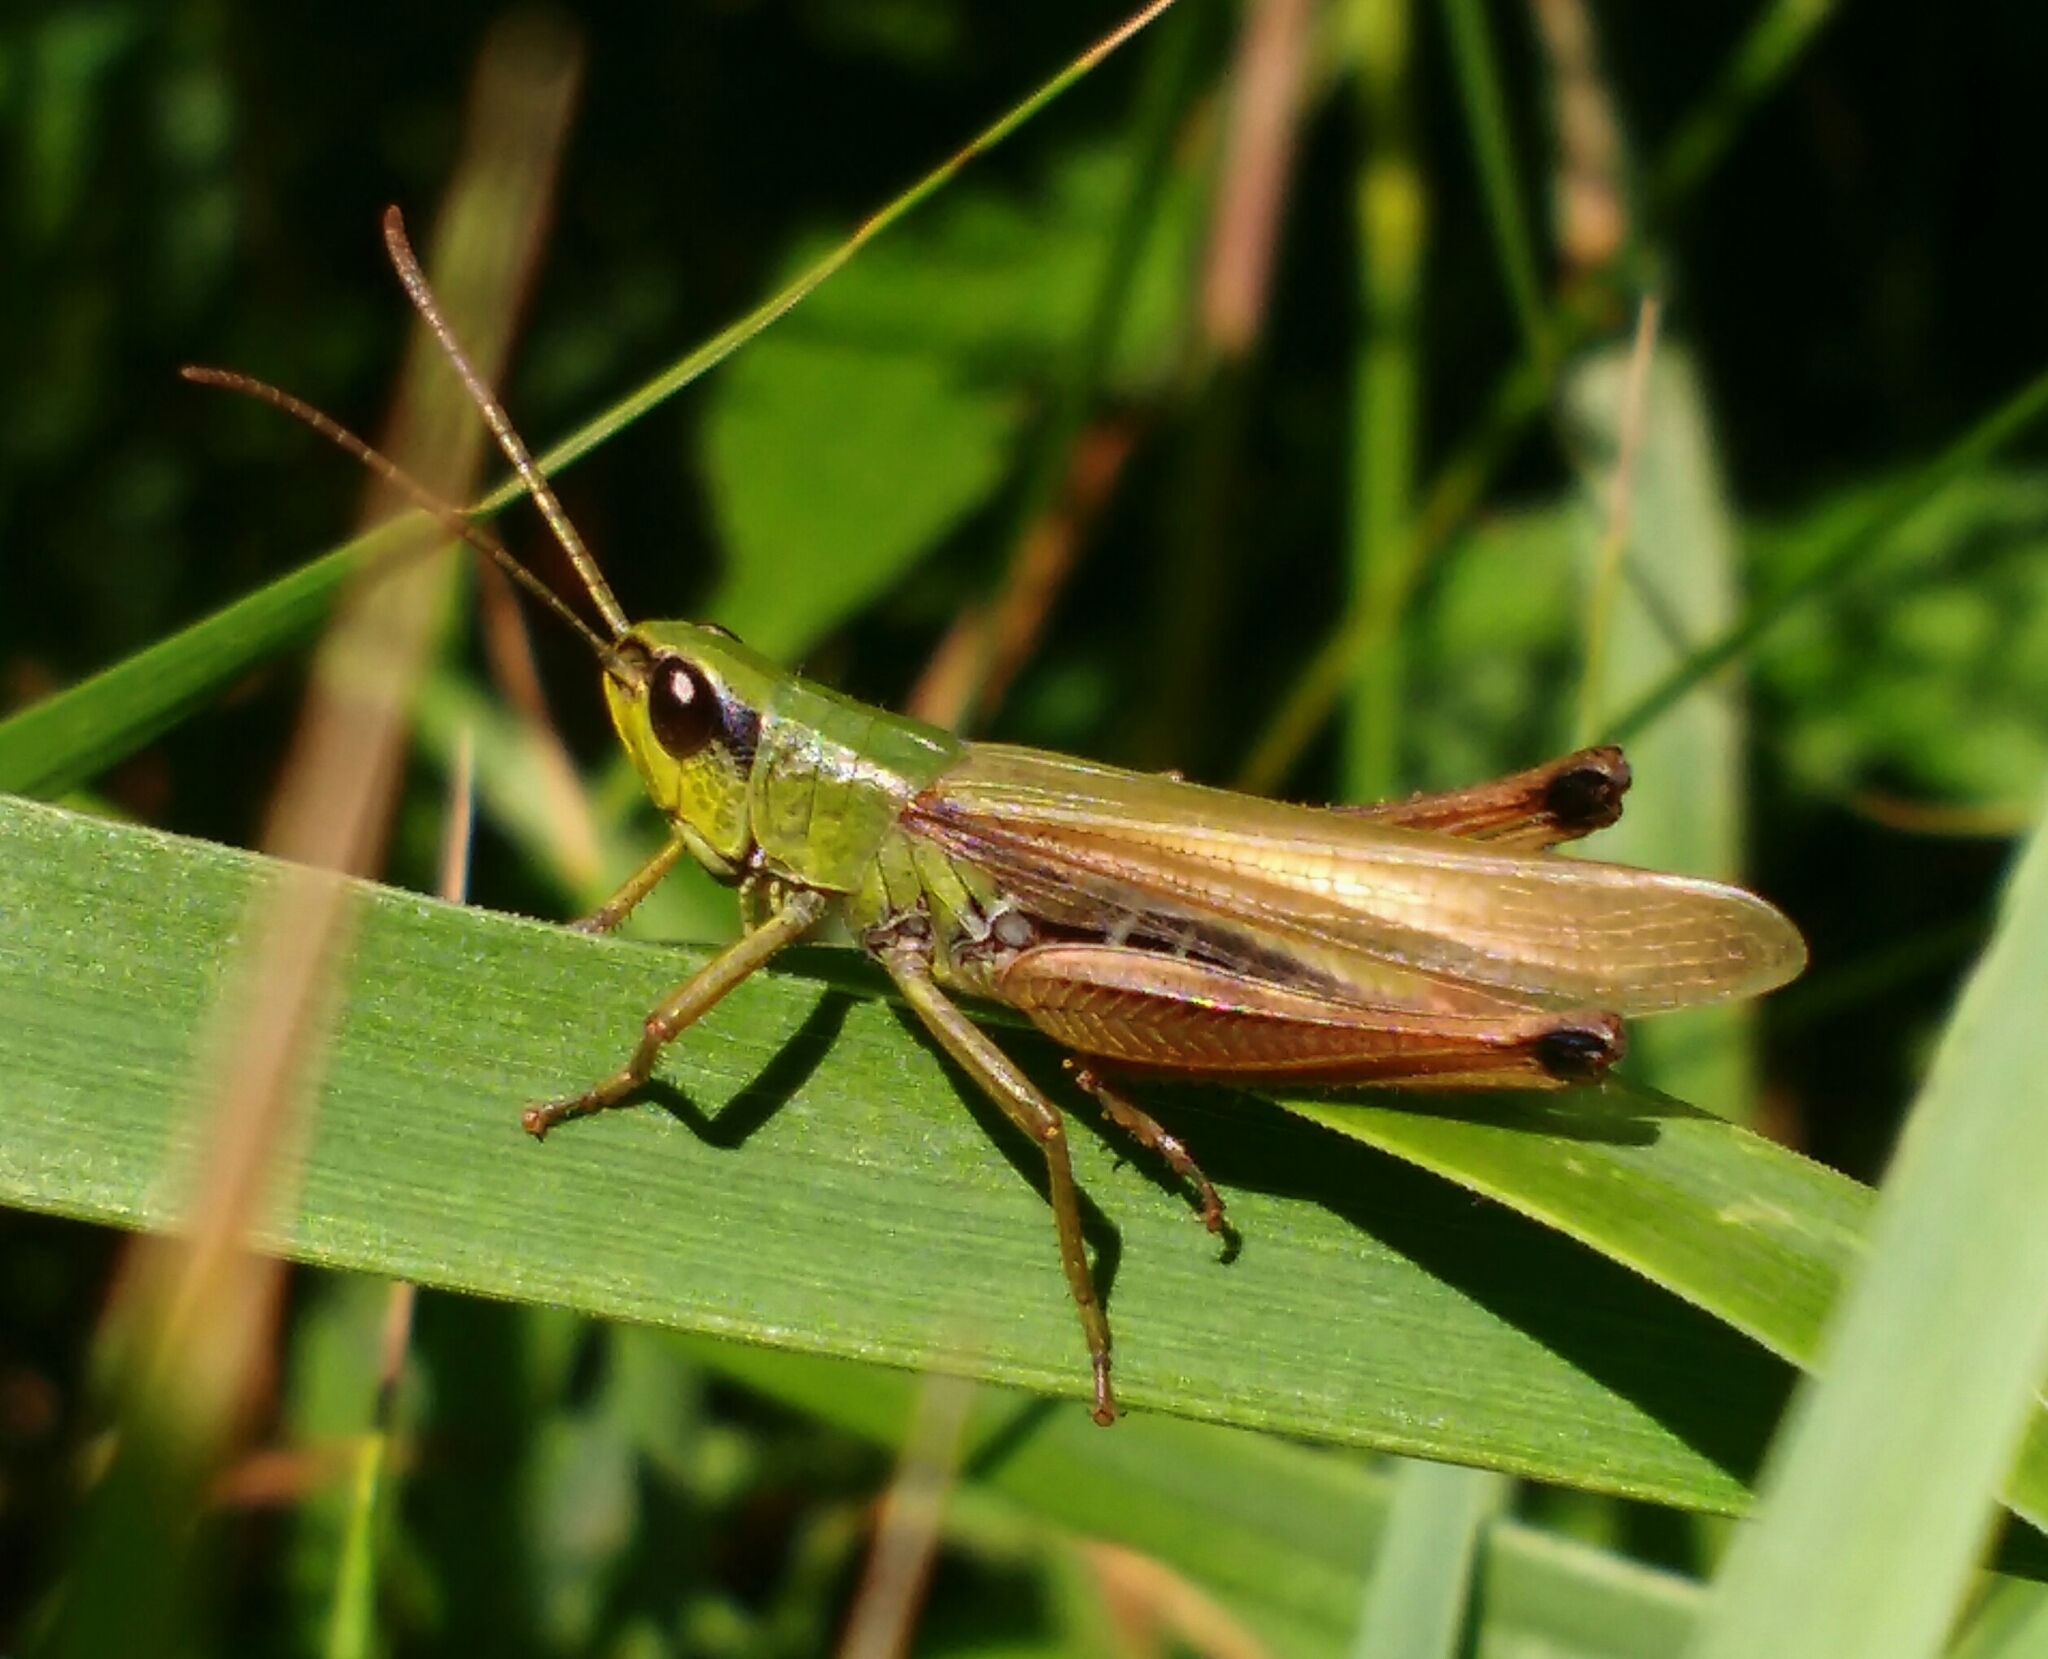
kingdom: Animalia
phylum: Arthropoda
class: Insecta
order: Orthoptera
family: Acrididae
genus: Pseudochorthippus
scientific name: Pseudochorthippus parallelus
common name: Meadow grasshopper
